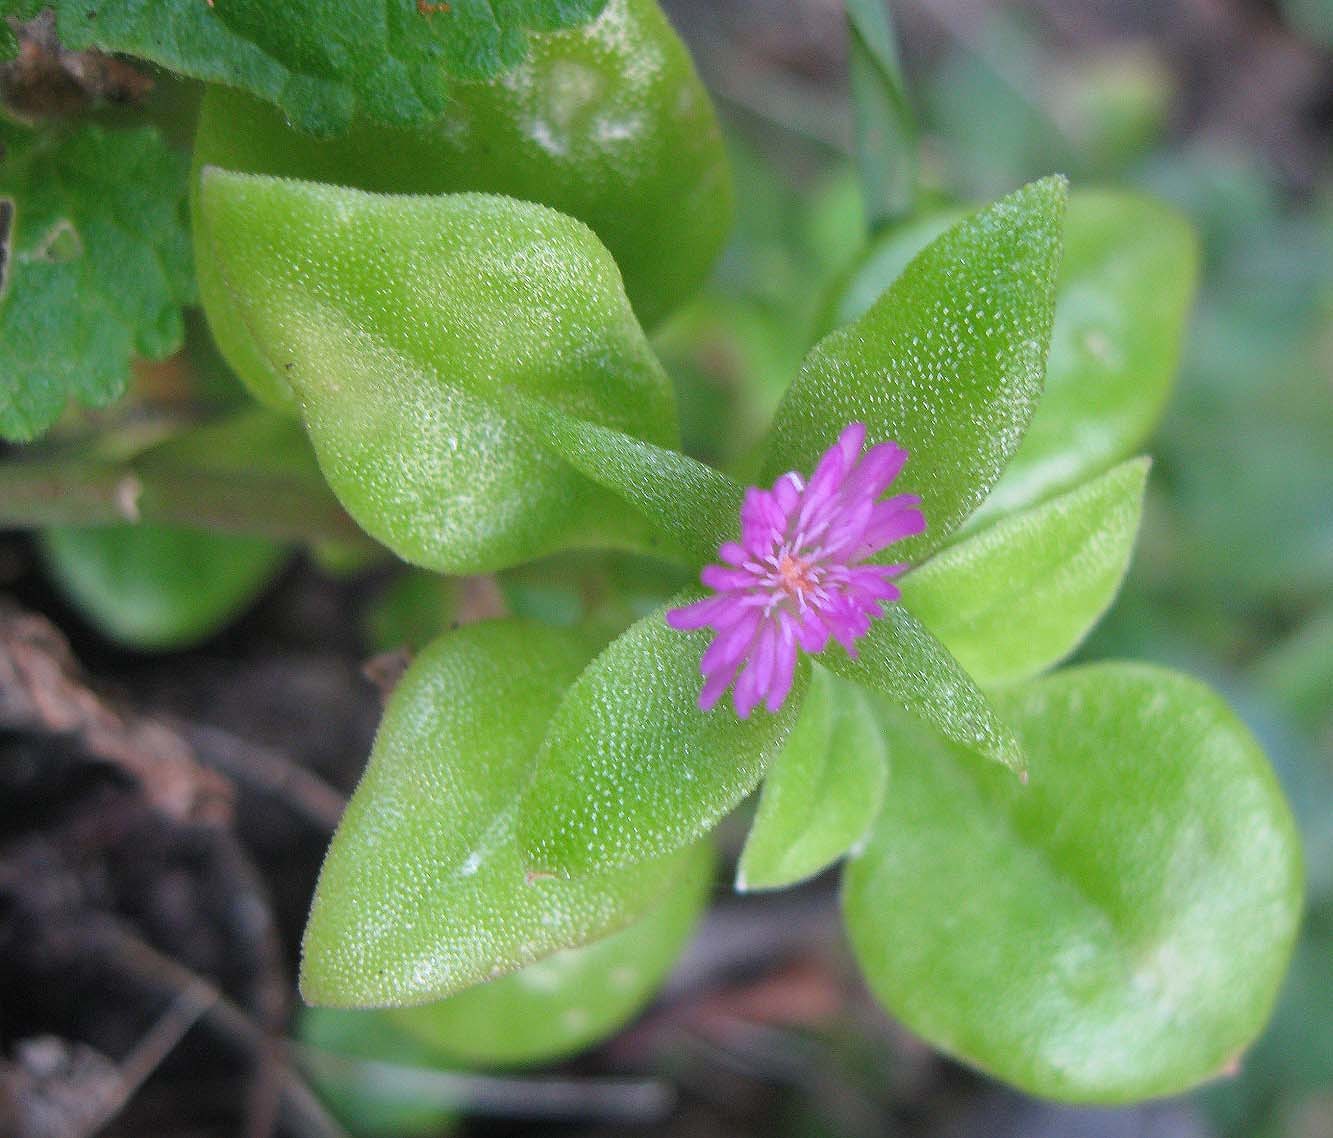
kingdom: Plantae
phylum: Tracheophyta
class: Magnoliopsida
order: Caryophyllales
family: Aizoaceae
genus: Mesembryanthemum
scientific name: Mesembryanthemum cordifolium
